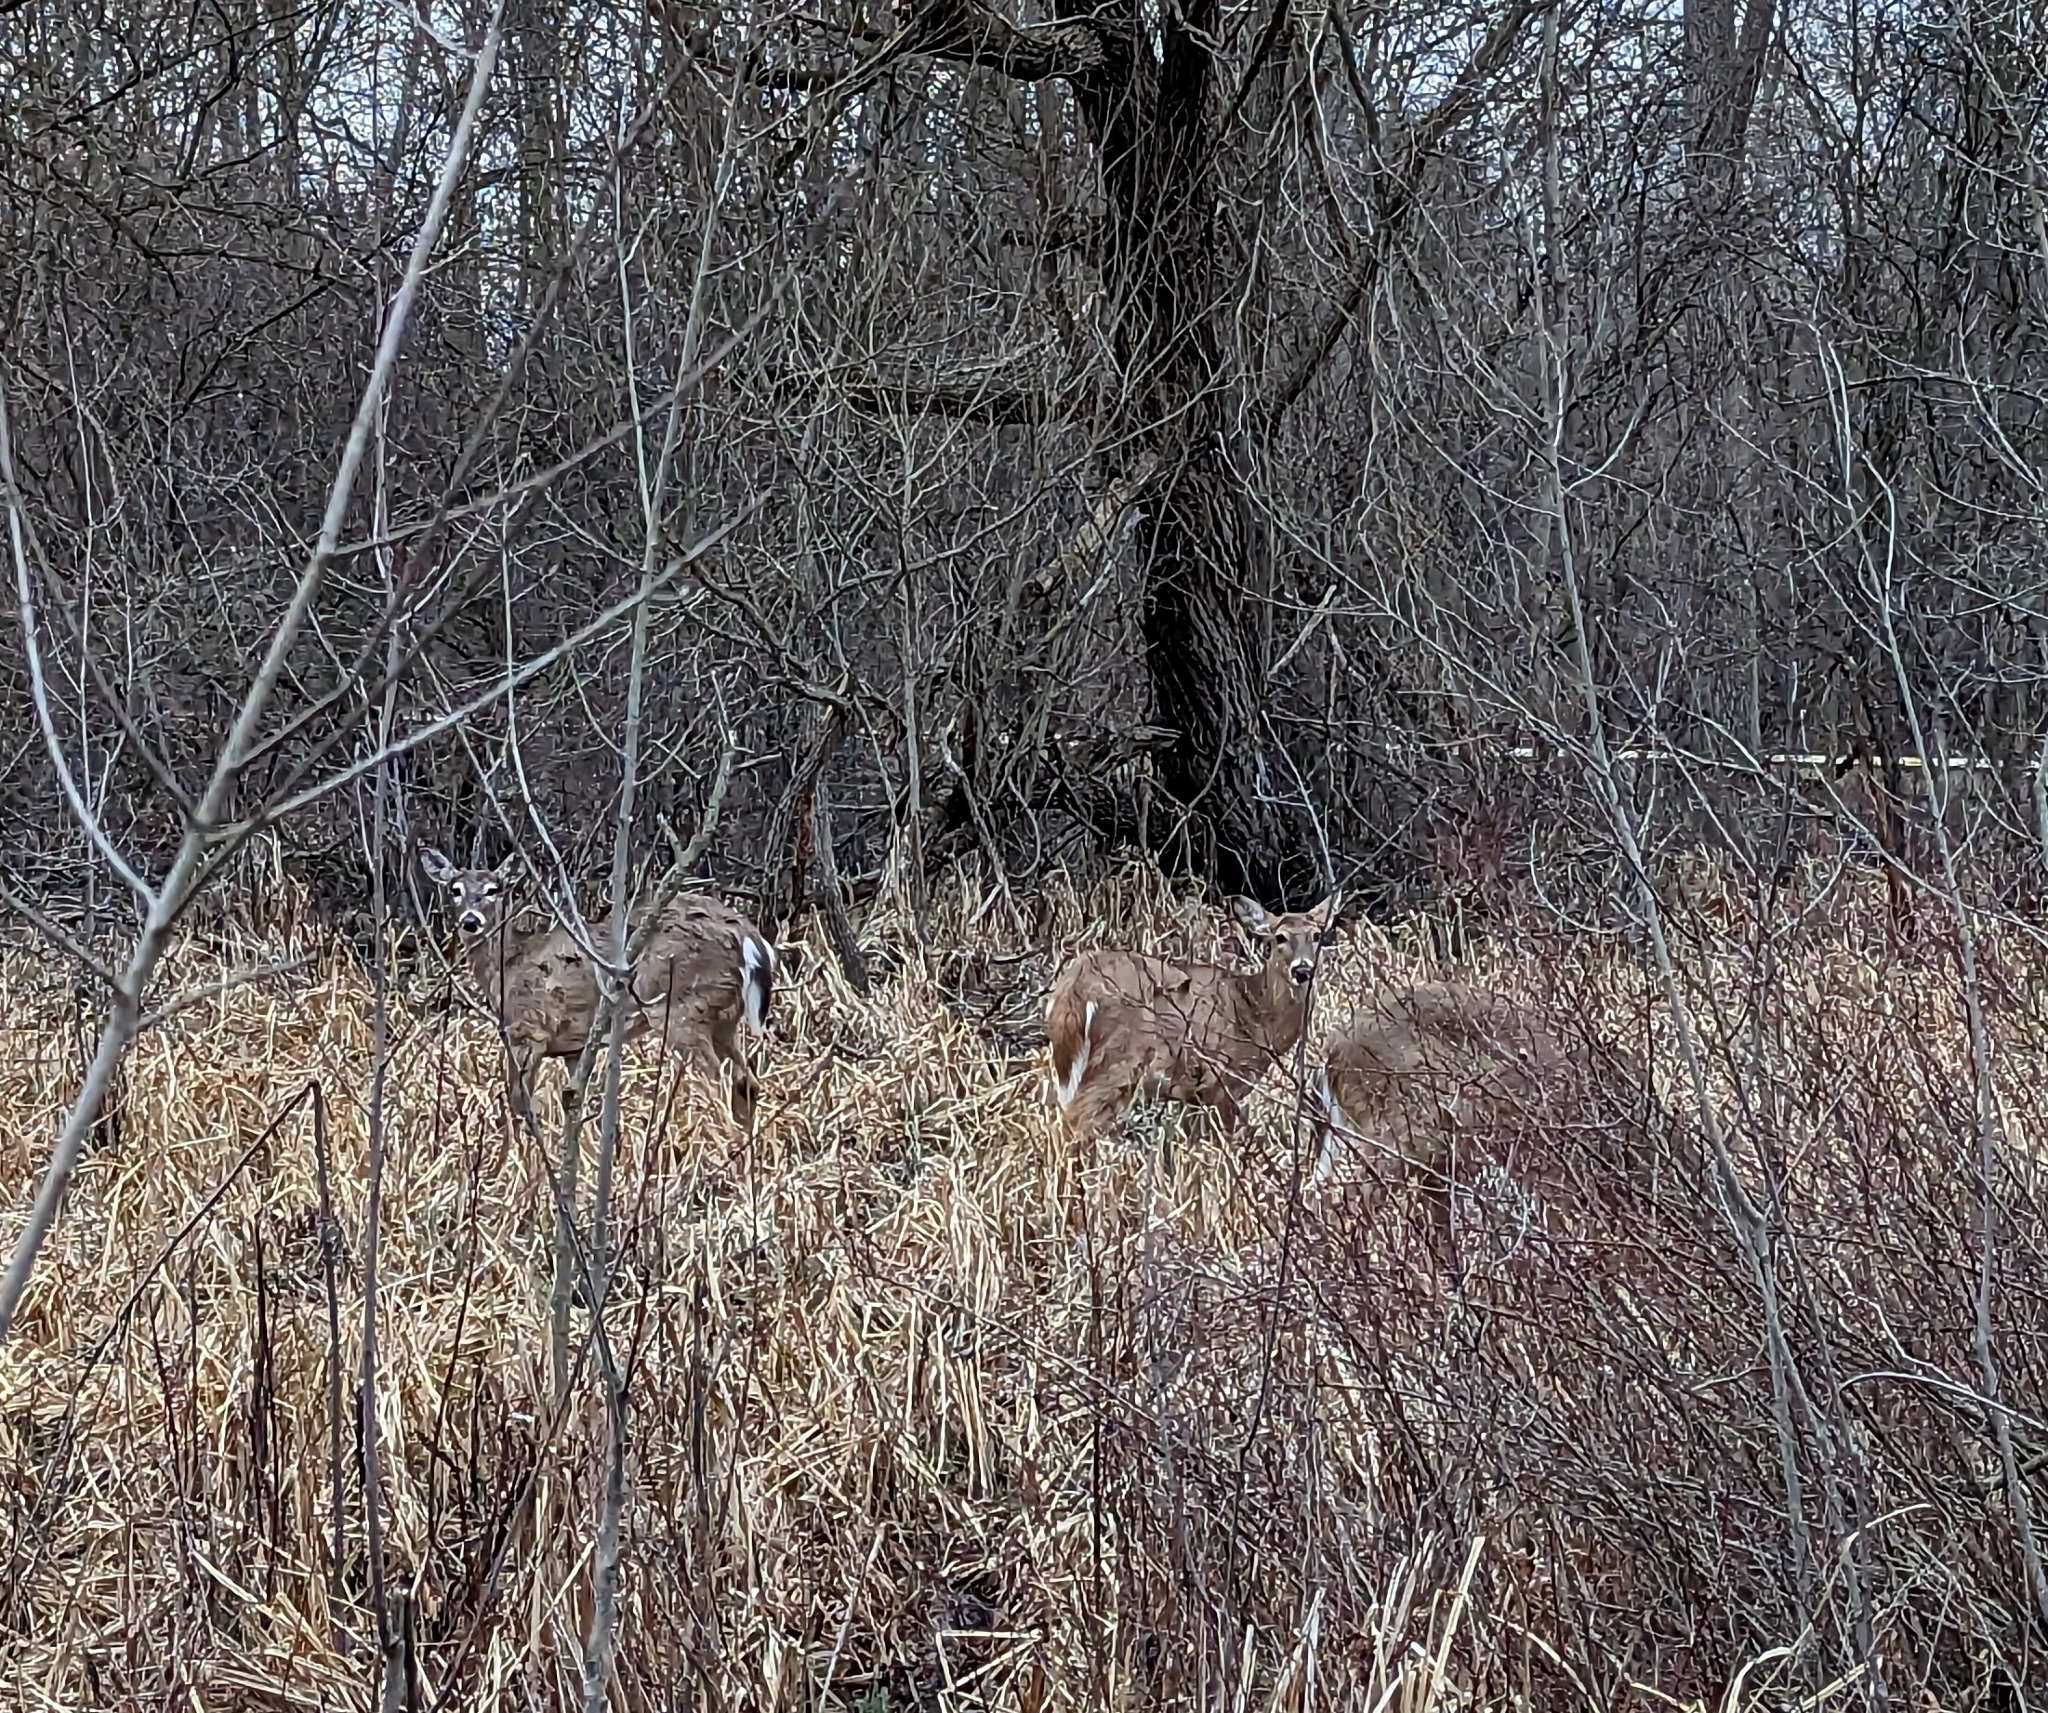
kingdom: Animalia
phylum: Chordata
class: Mammalia
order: Artiodactyla
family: Cervidae
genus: Odocoileus
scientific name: Odocoileus virginianus
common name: White-tailed deer
